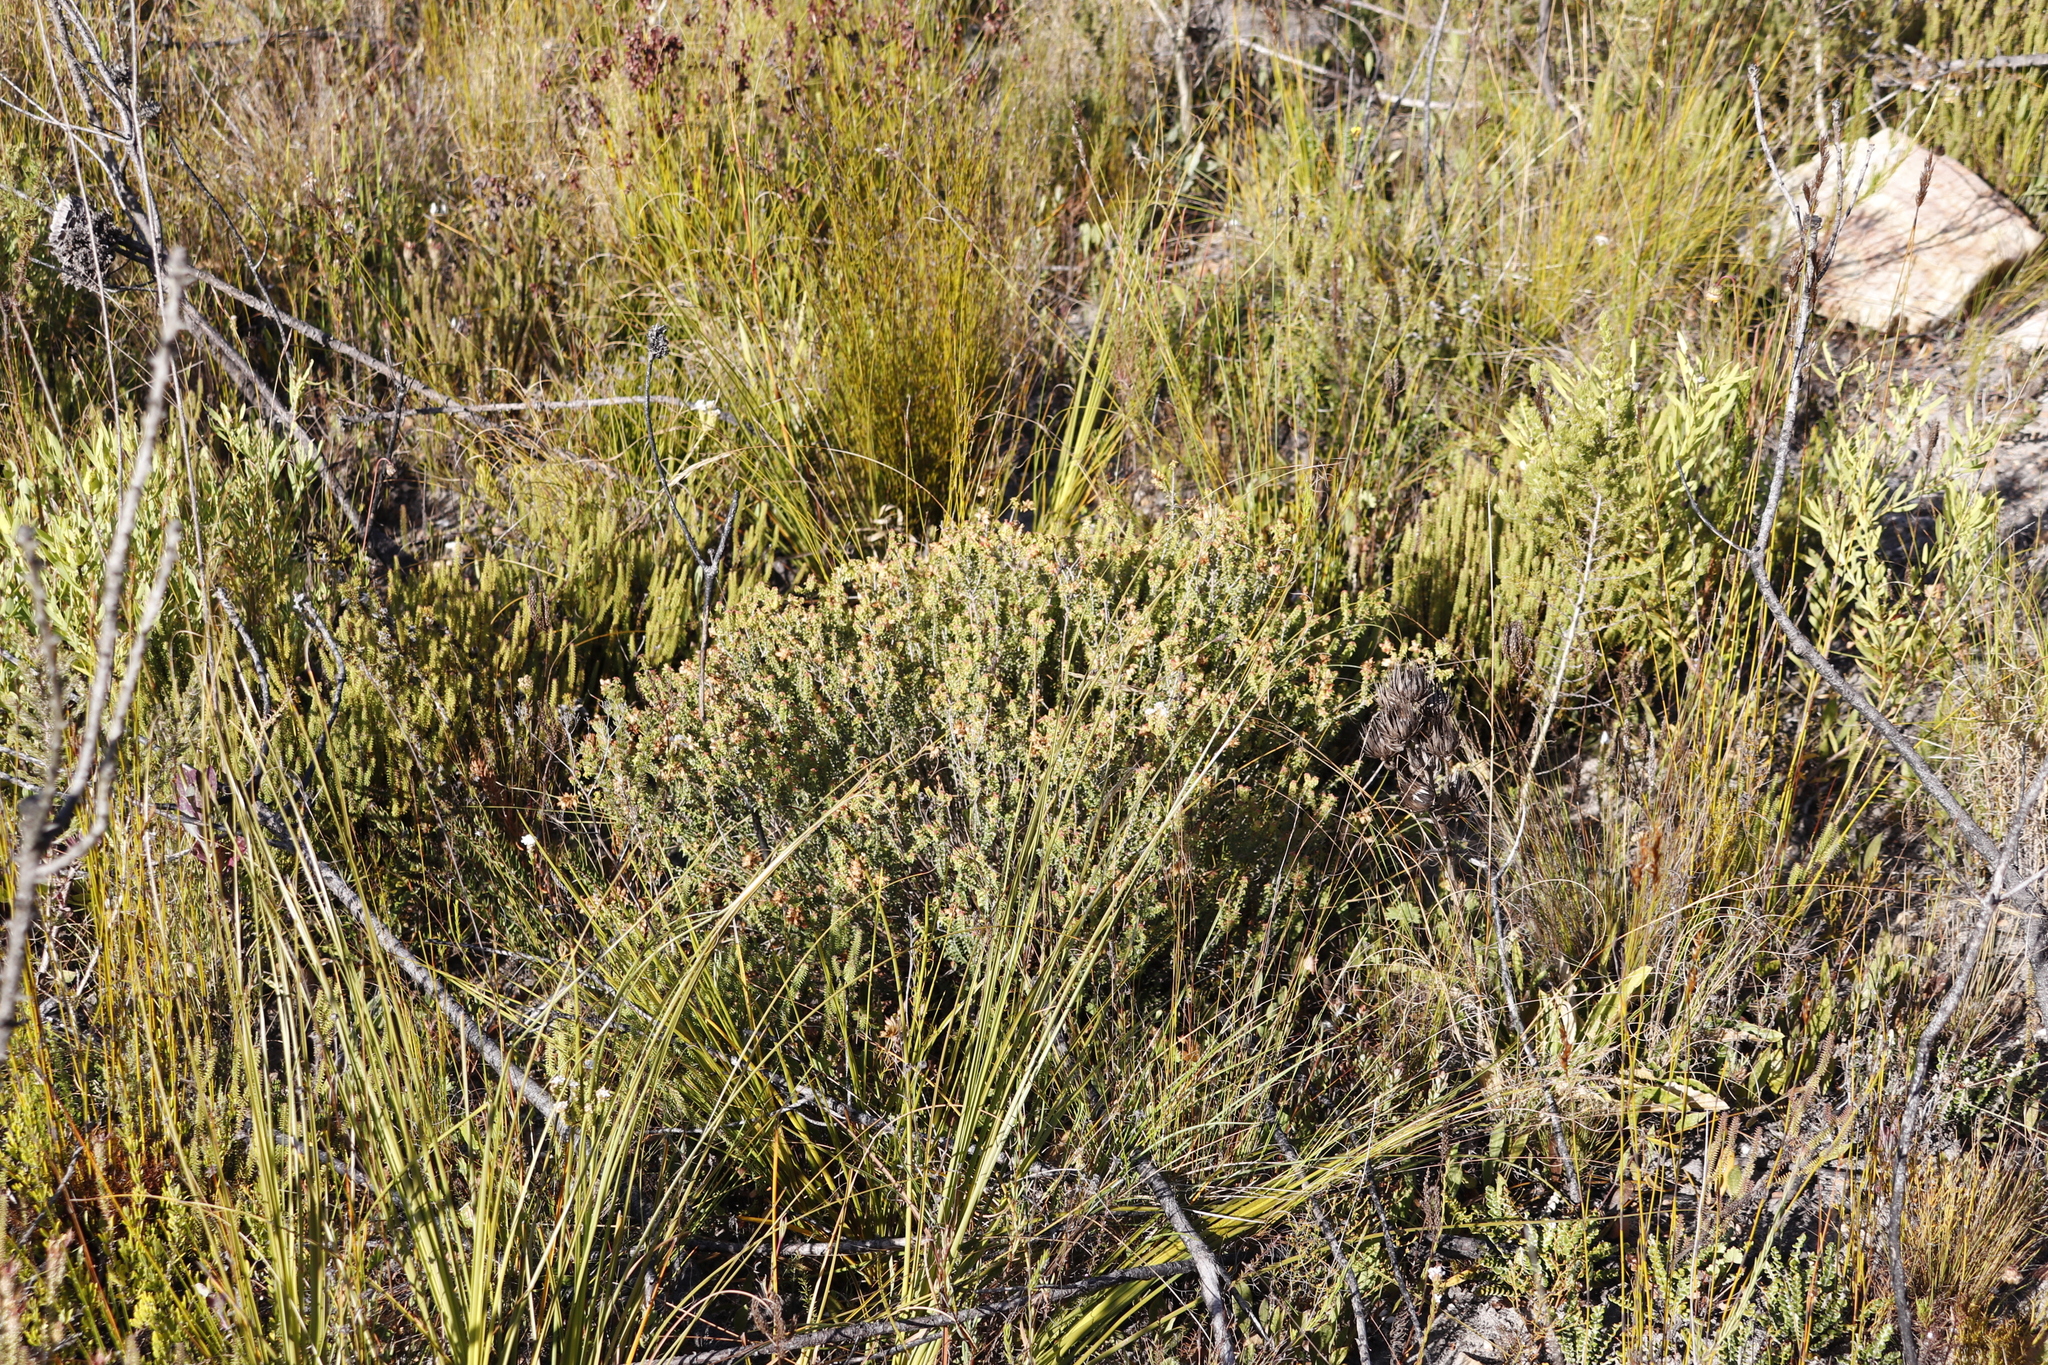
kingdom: Plantae
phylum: Tracheophyta
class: Magnoliopsida
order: Myrtales
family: Penaeaceae
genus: Penaea
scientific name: Penaea mucronata
